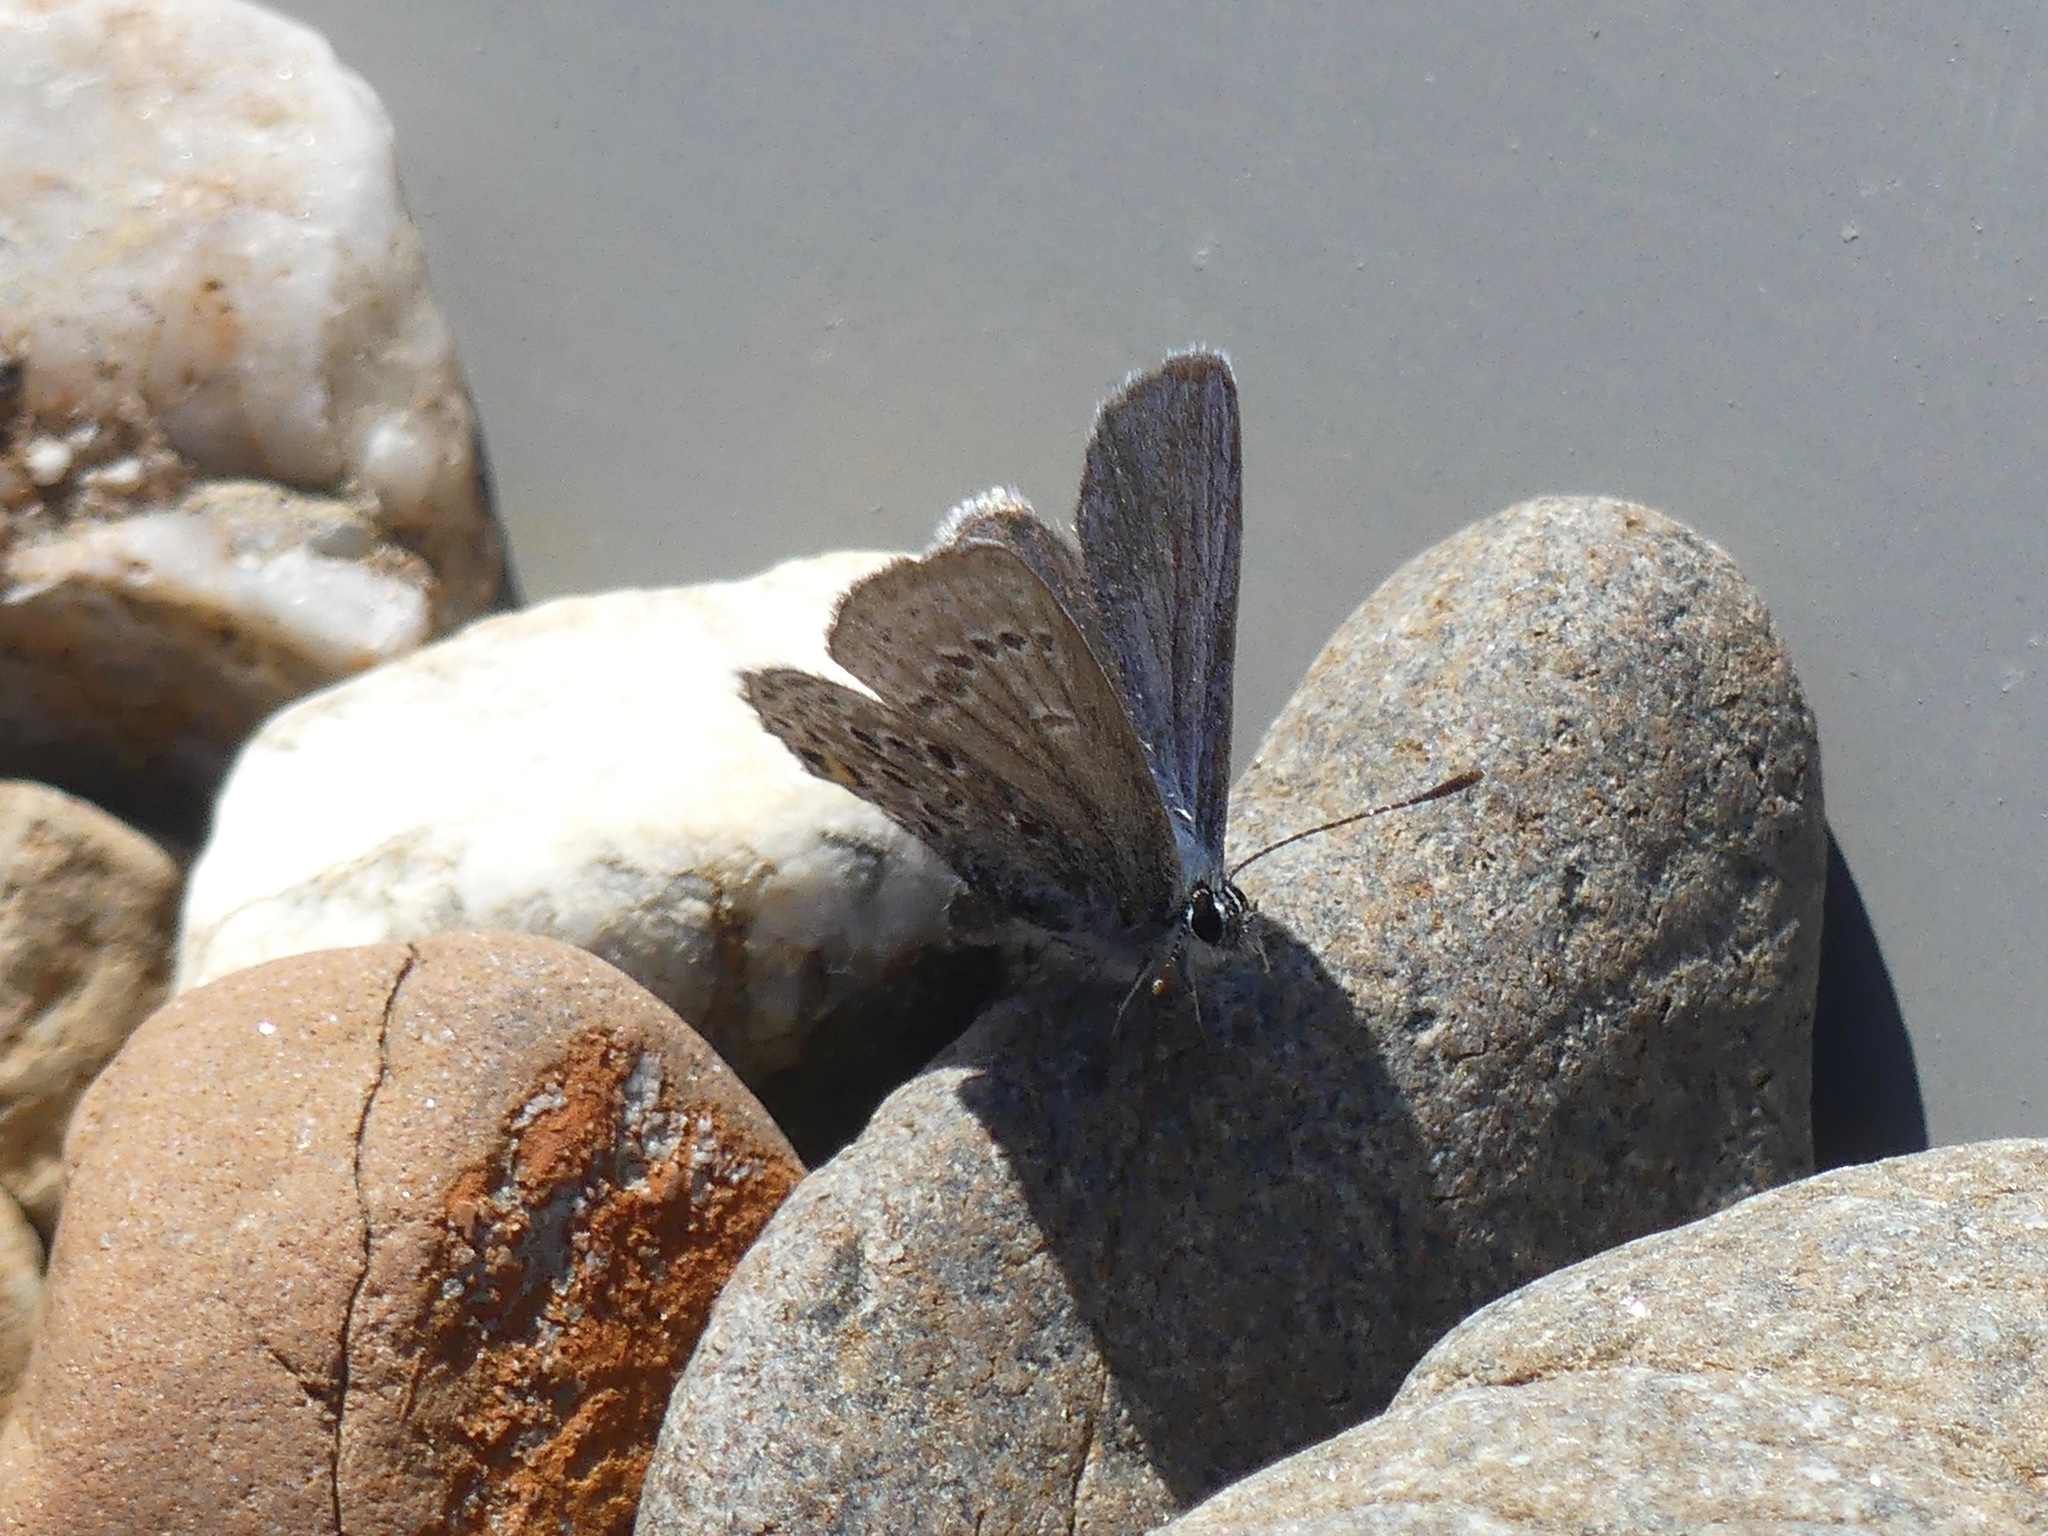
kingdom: Animalia
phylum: Arthropoda
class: Insecta
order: Lepidoptera
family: Lycaenidae
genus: Vacciniina
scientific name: Vacciniina optilete
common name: Cranberry blue
